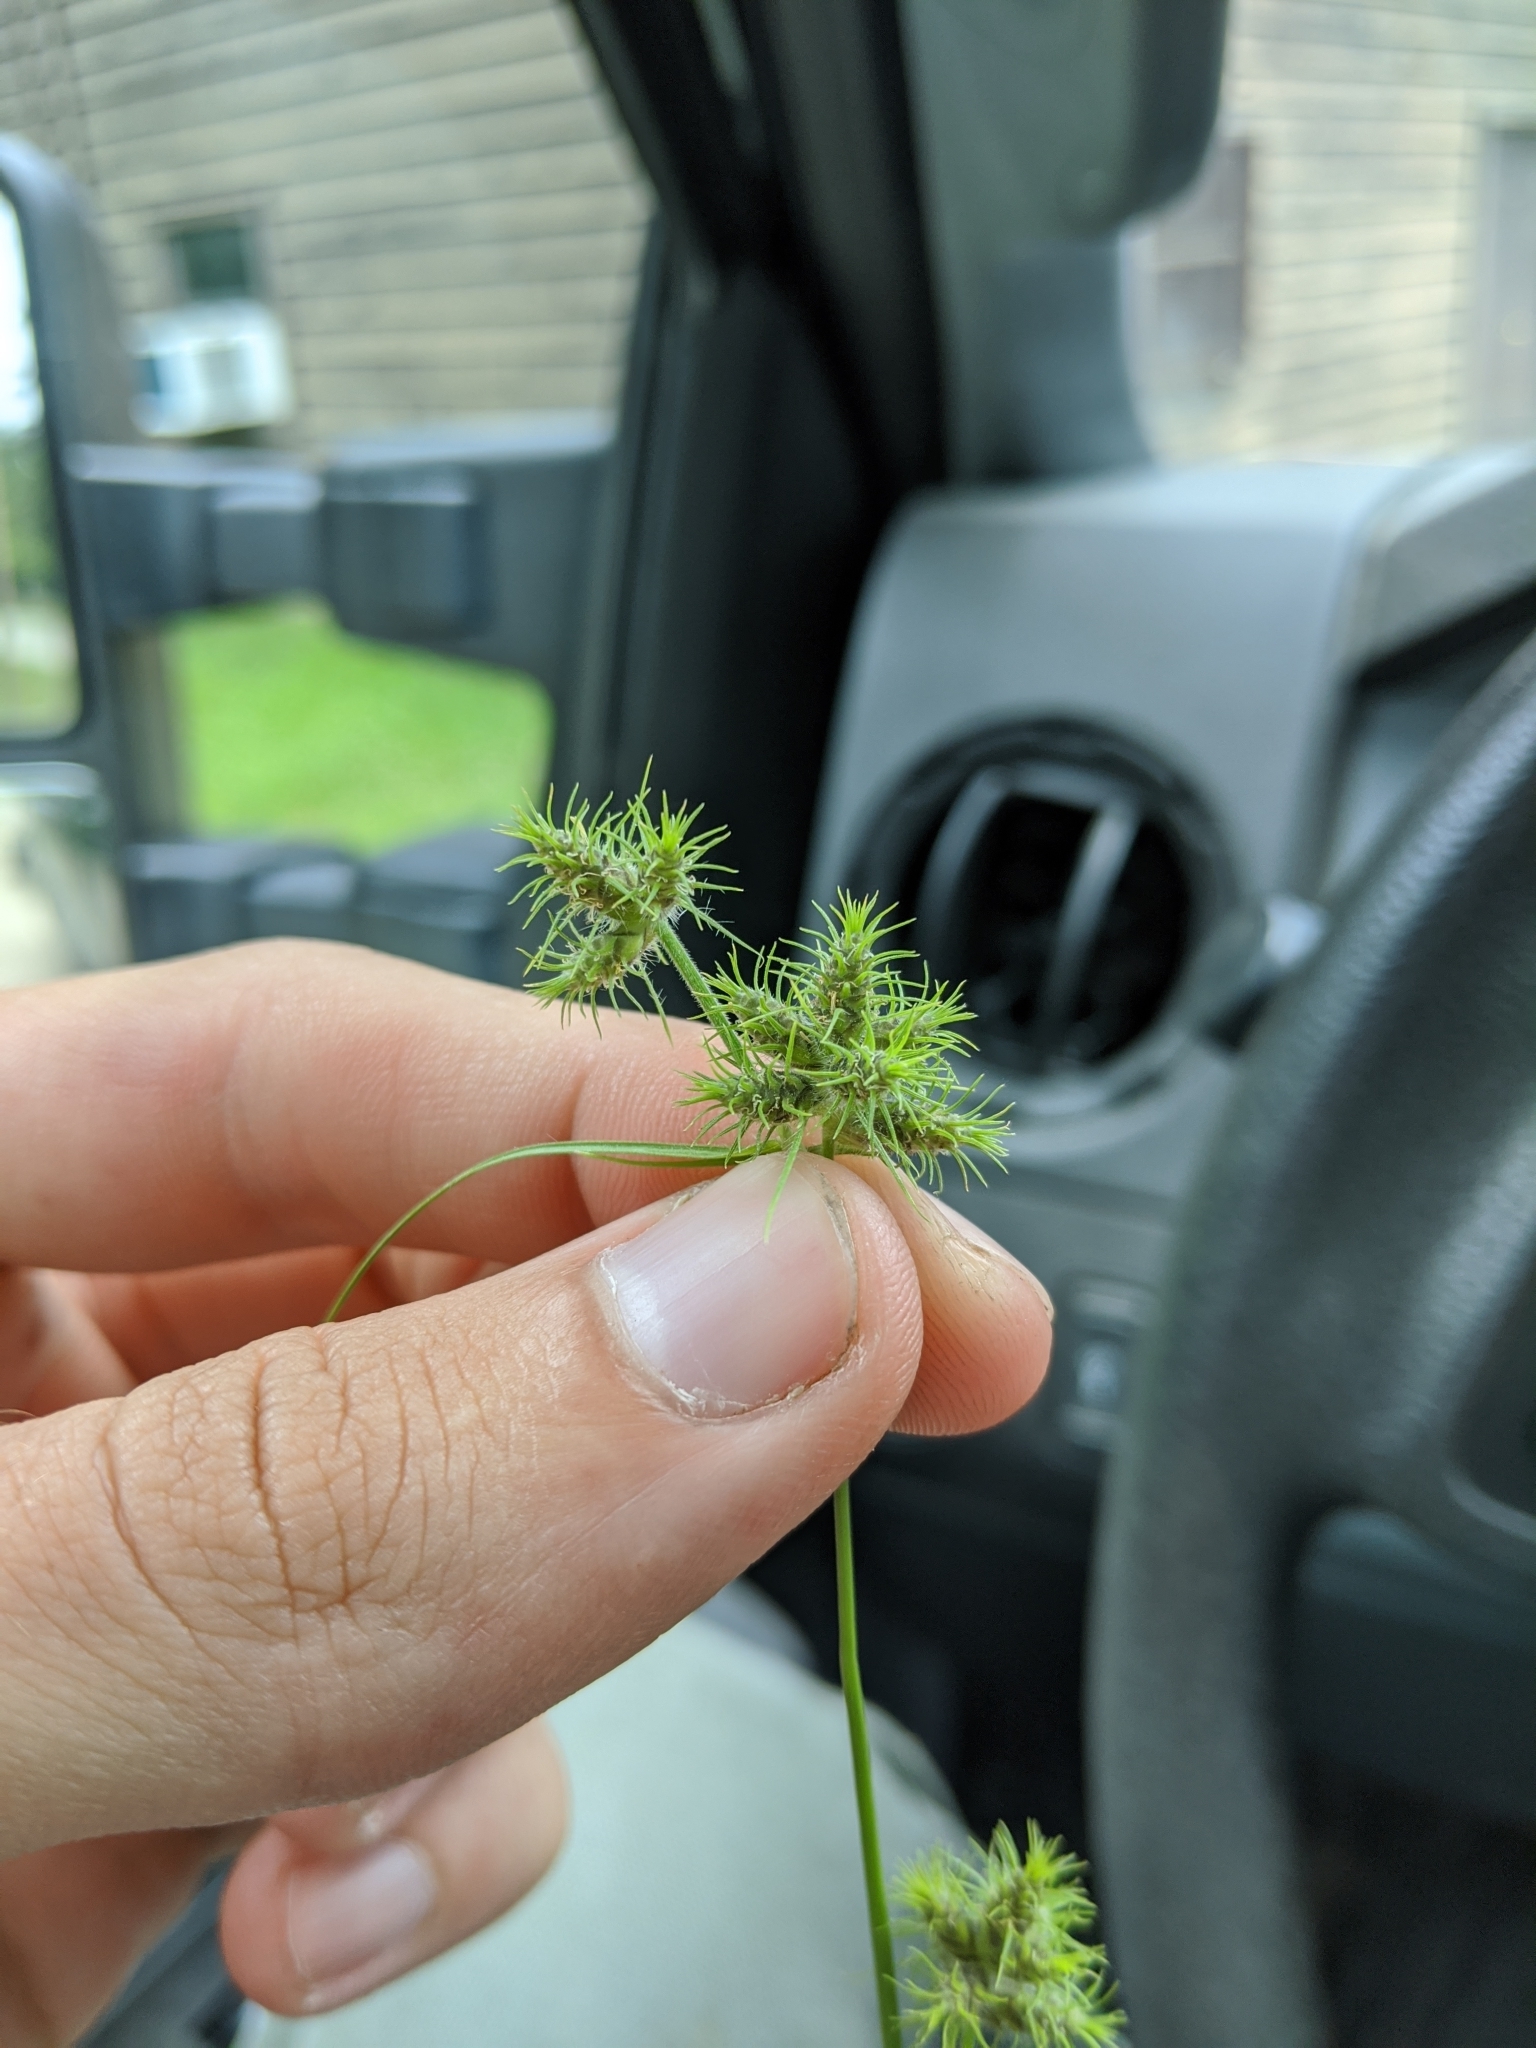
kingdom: Plantae
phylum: Tracheophyta
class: Liliopsida
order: Poales
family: Cyperaceae
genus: Fuirena
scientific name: Fuirena simplex
